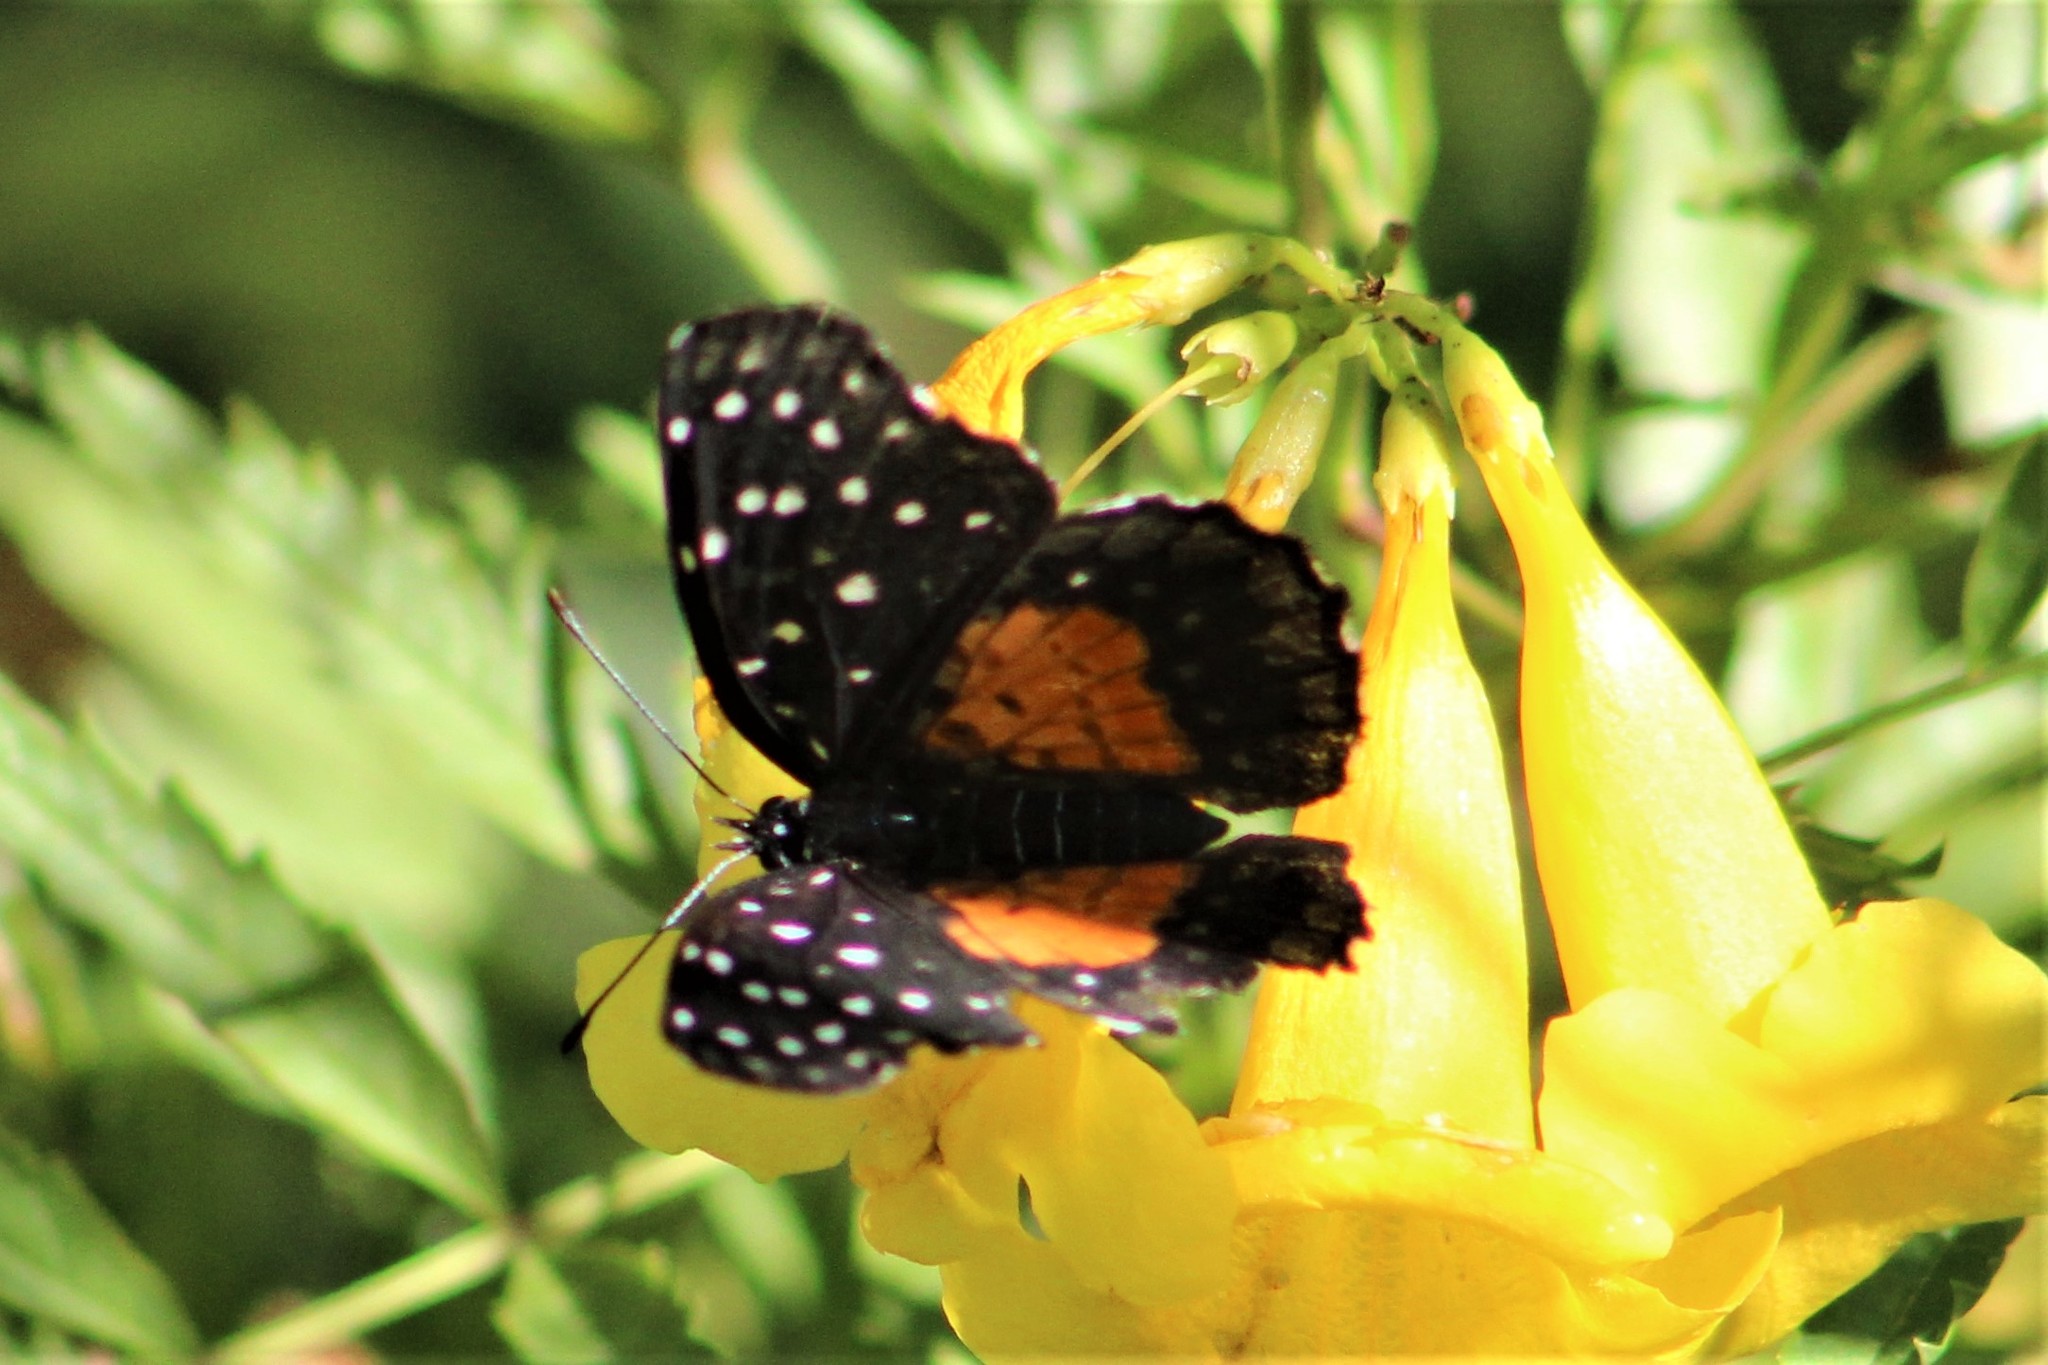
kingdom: Animalia
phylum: Arthropoda
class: Insecta
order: Lepidoptera
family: Nymphalidae
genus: Chlosyne
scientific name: Chlosyne janais
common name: Crimson patch
